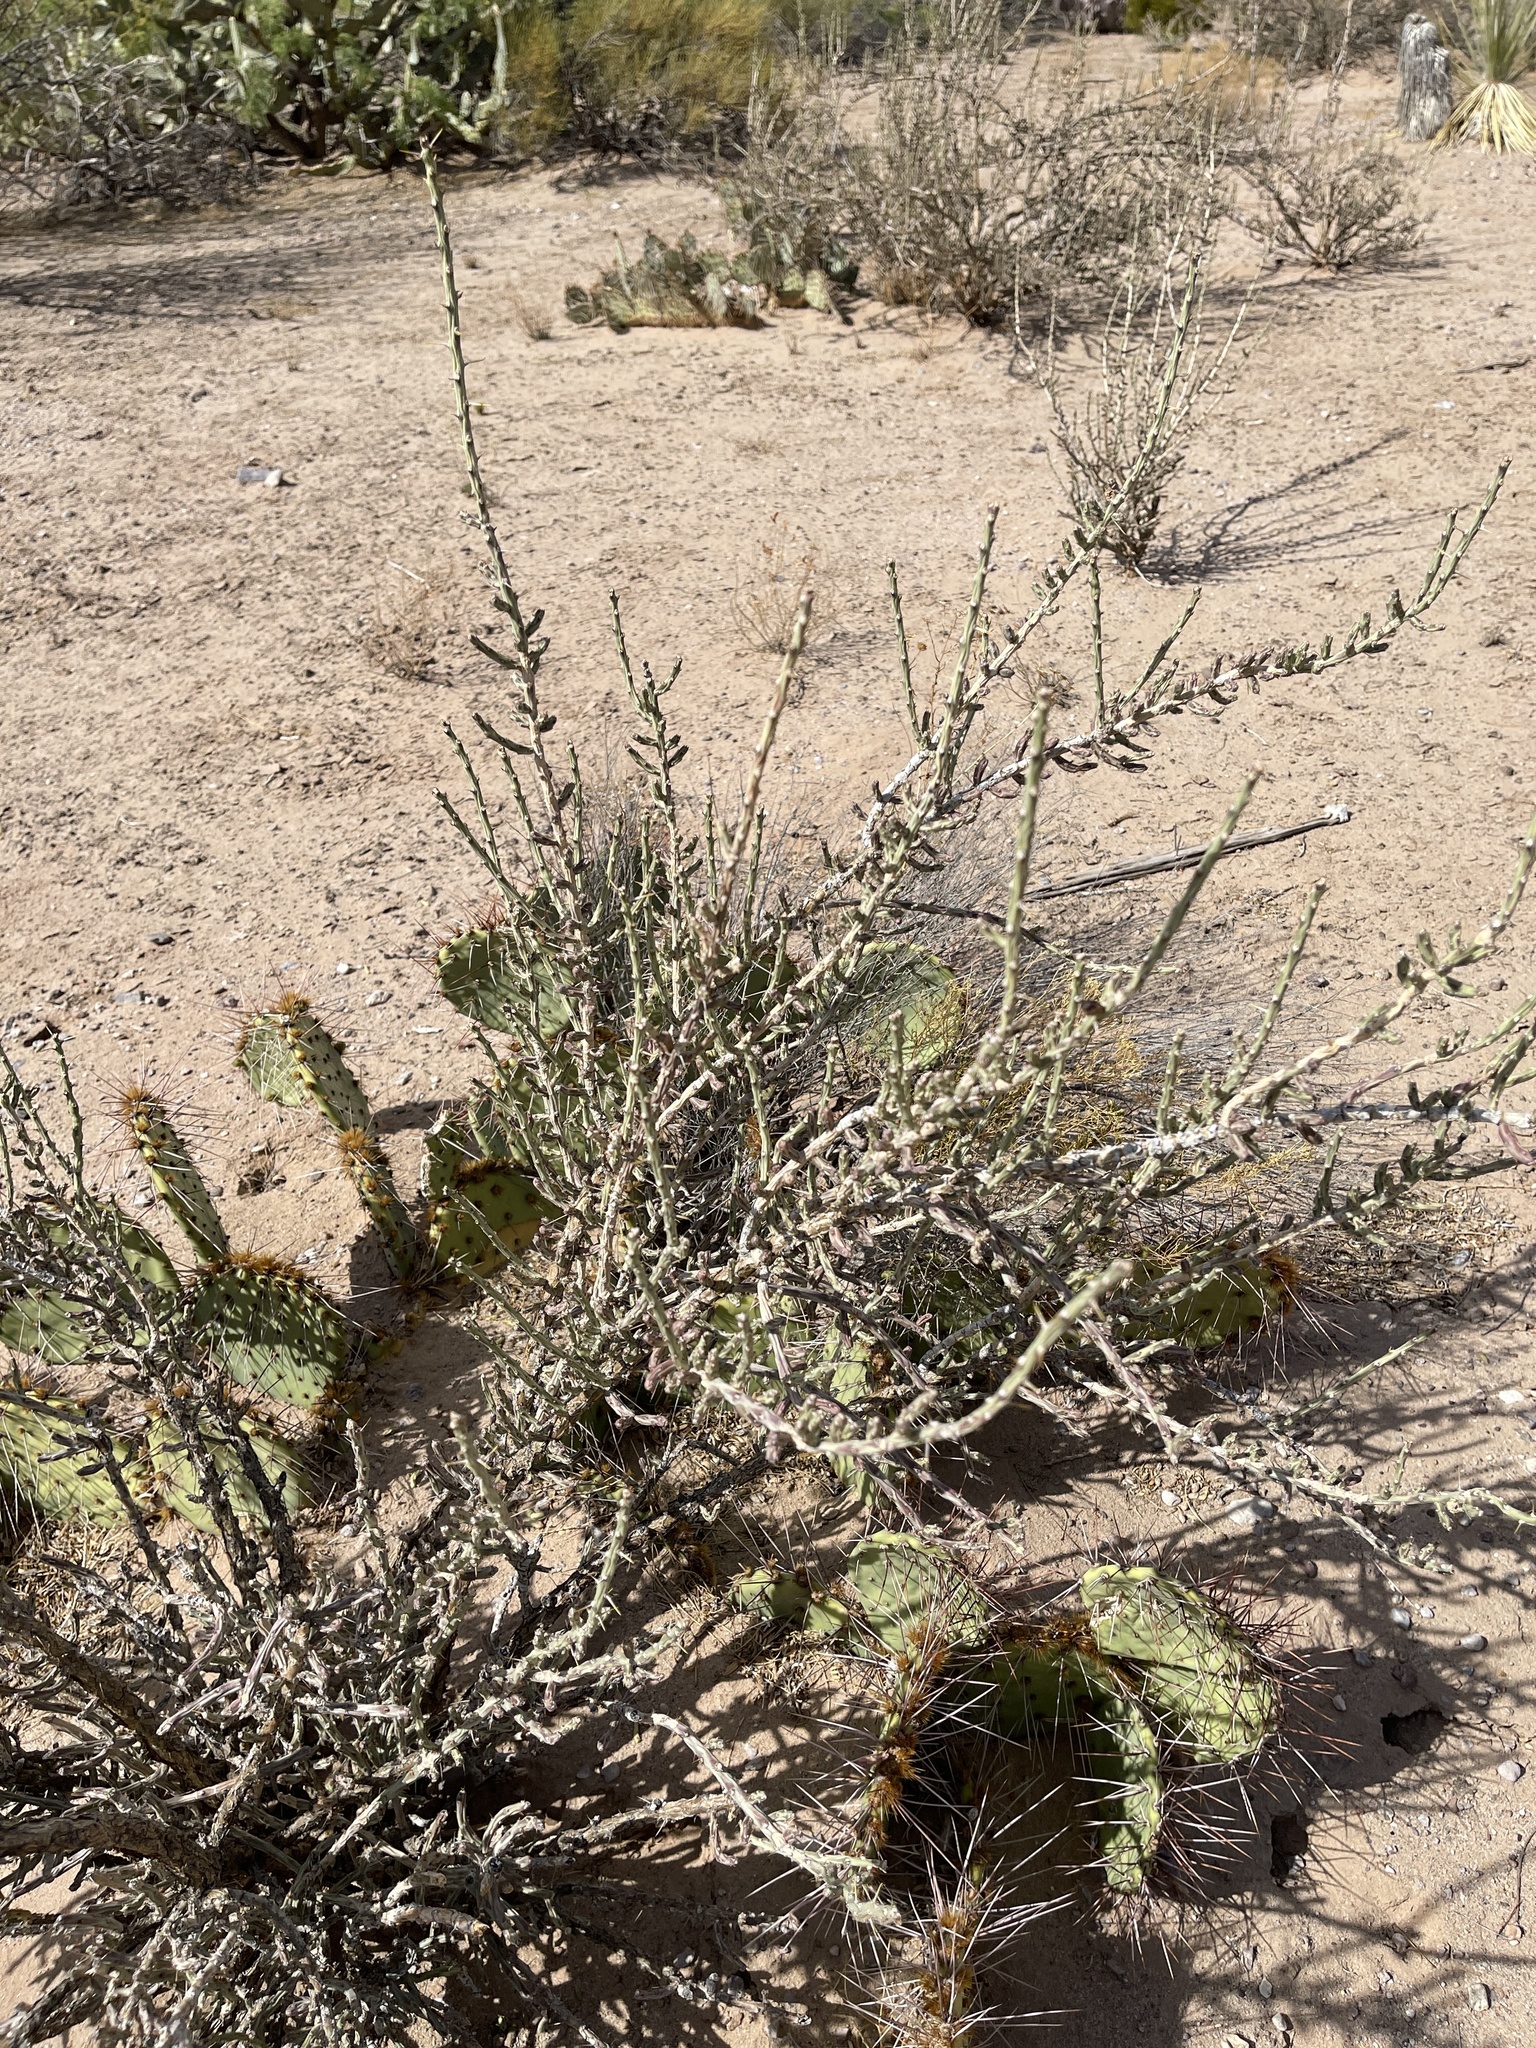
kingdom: Plantae
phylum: Tracheophyta
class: Magnoliopsida
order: Caryophyllales
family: Cactaceae
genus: Cylindropuntia
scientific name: Cylindropuntia leptocaulis
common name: Christmas cactus
